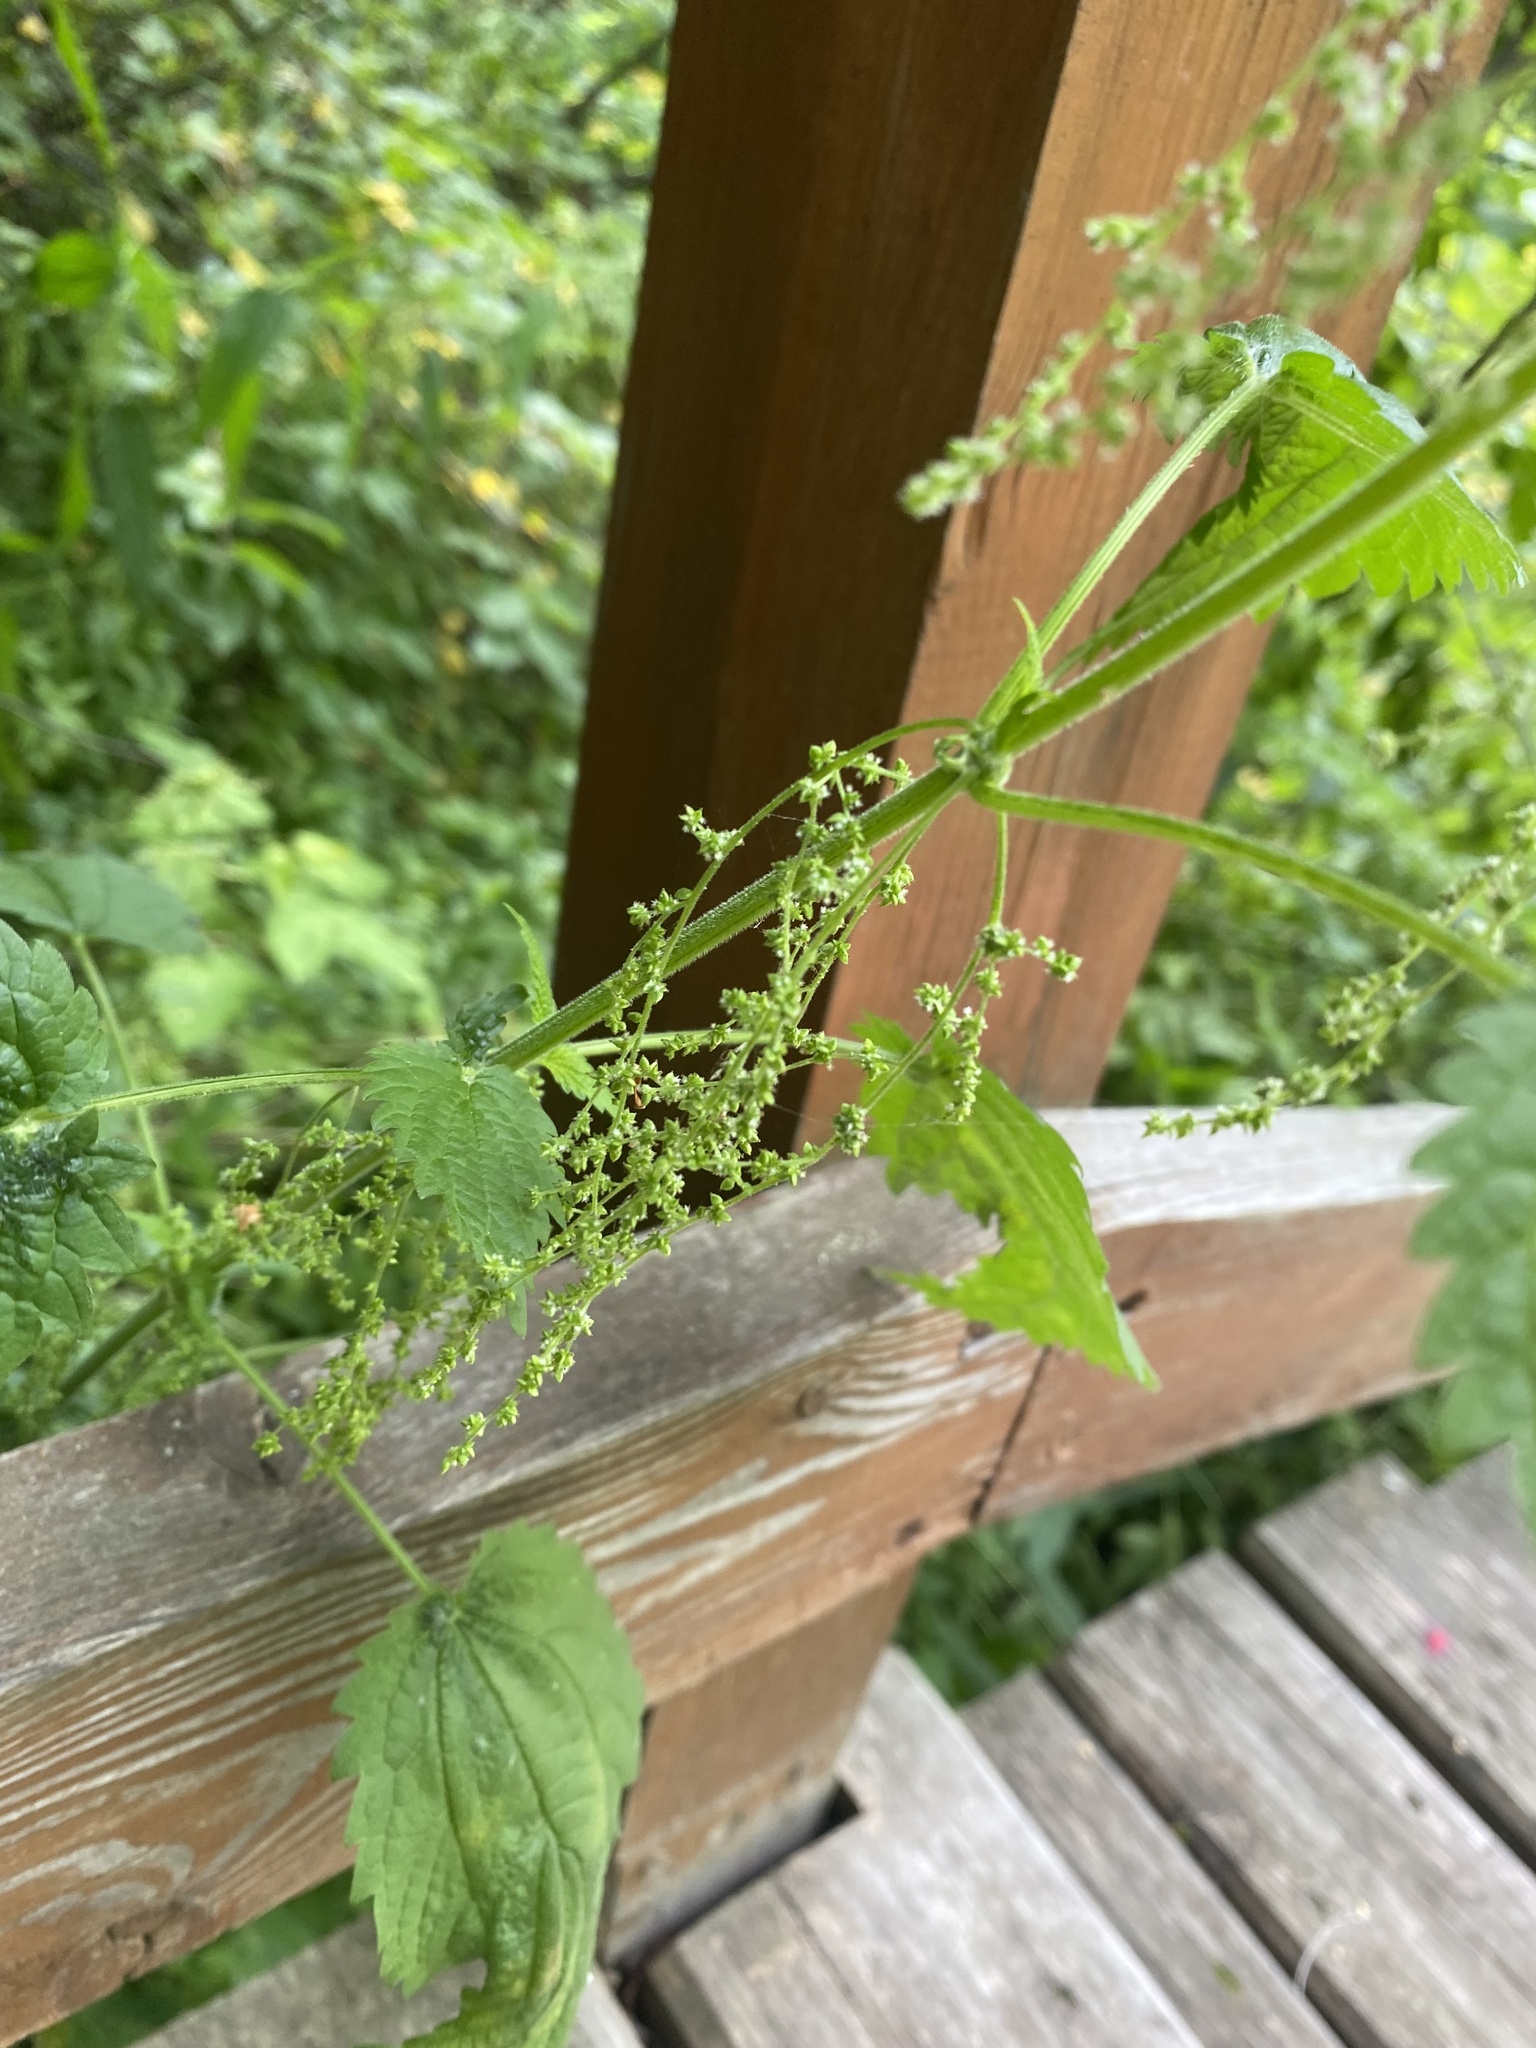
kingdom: Plantae
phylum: Tracheophyta
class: Magnoliopsida
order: Rosales
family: Urticaceae
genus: Urtica
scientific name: Urtica dioica
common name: Common nettle
